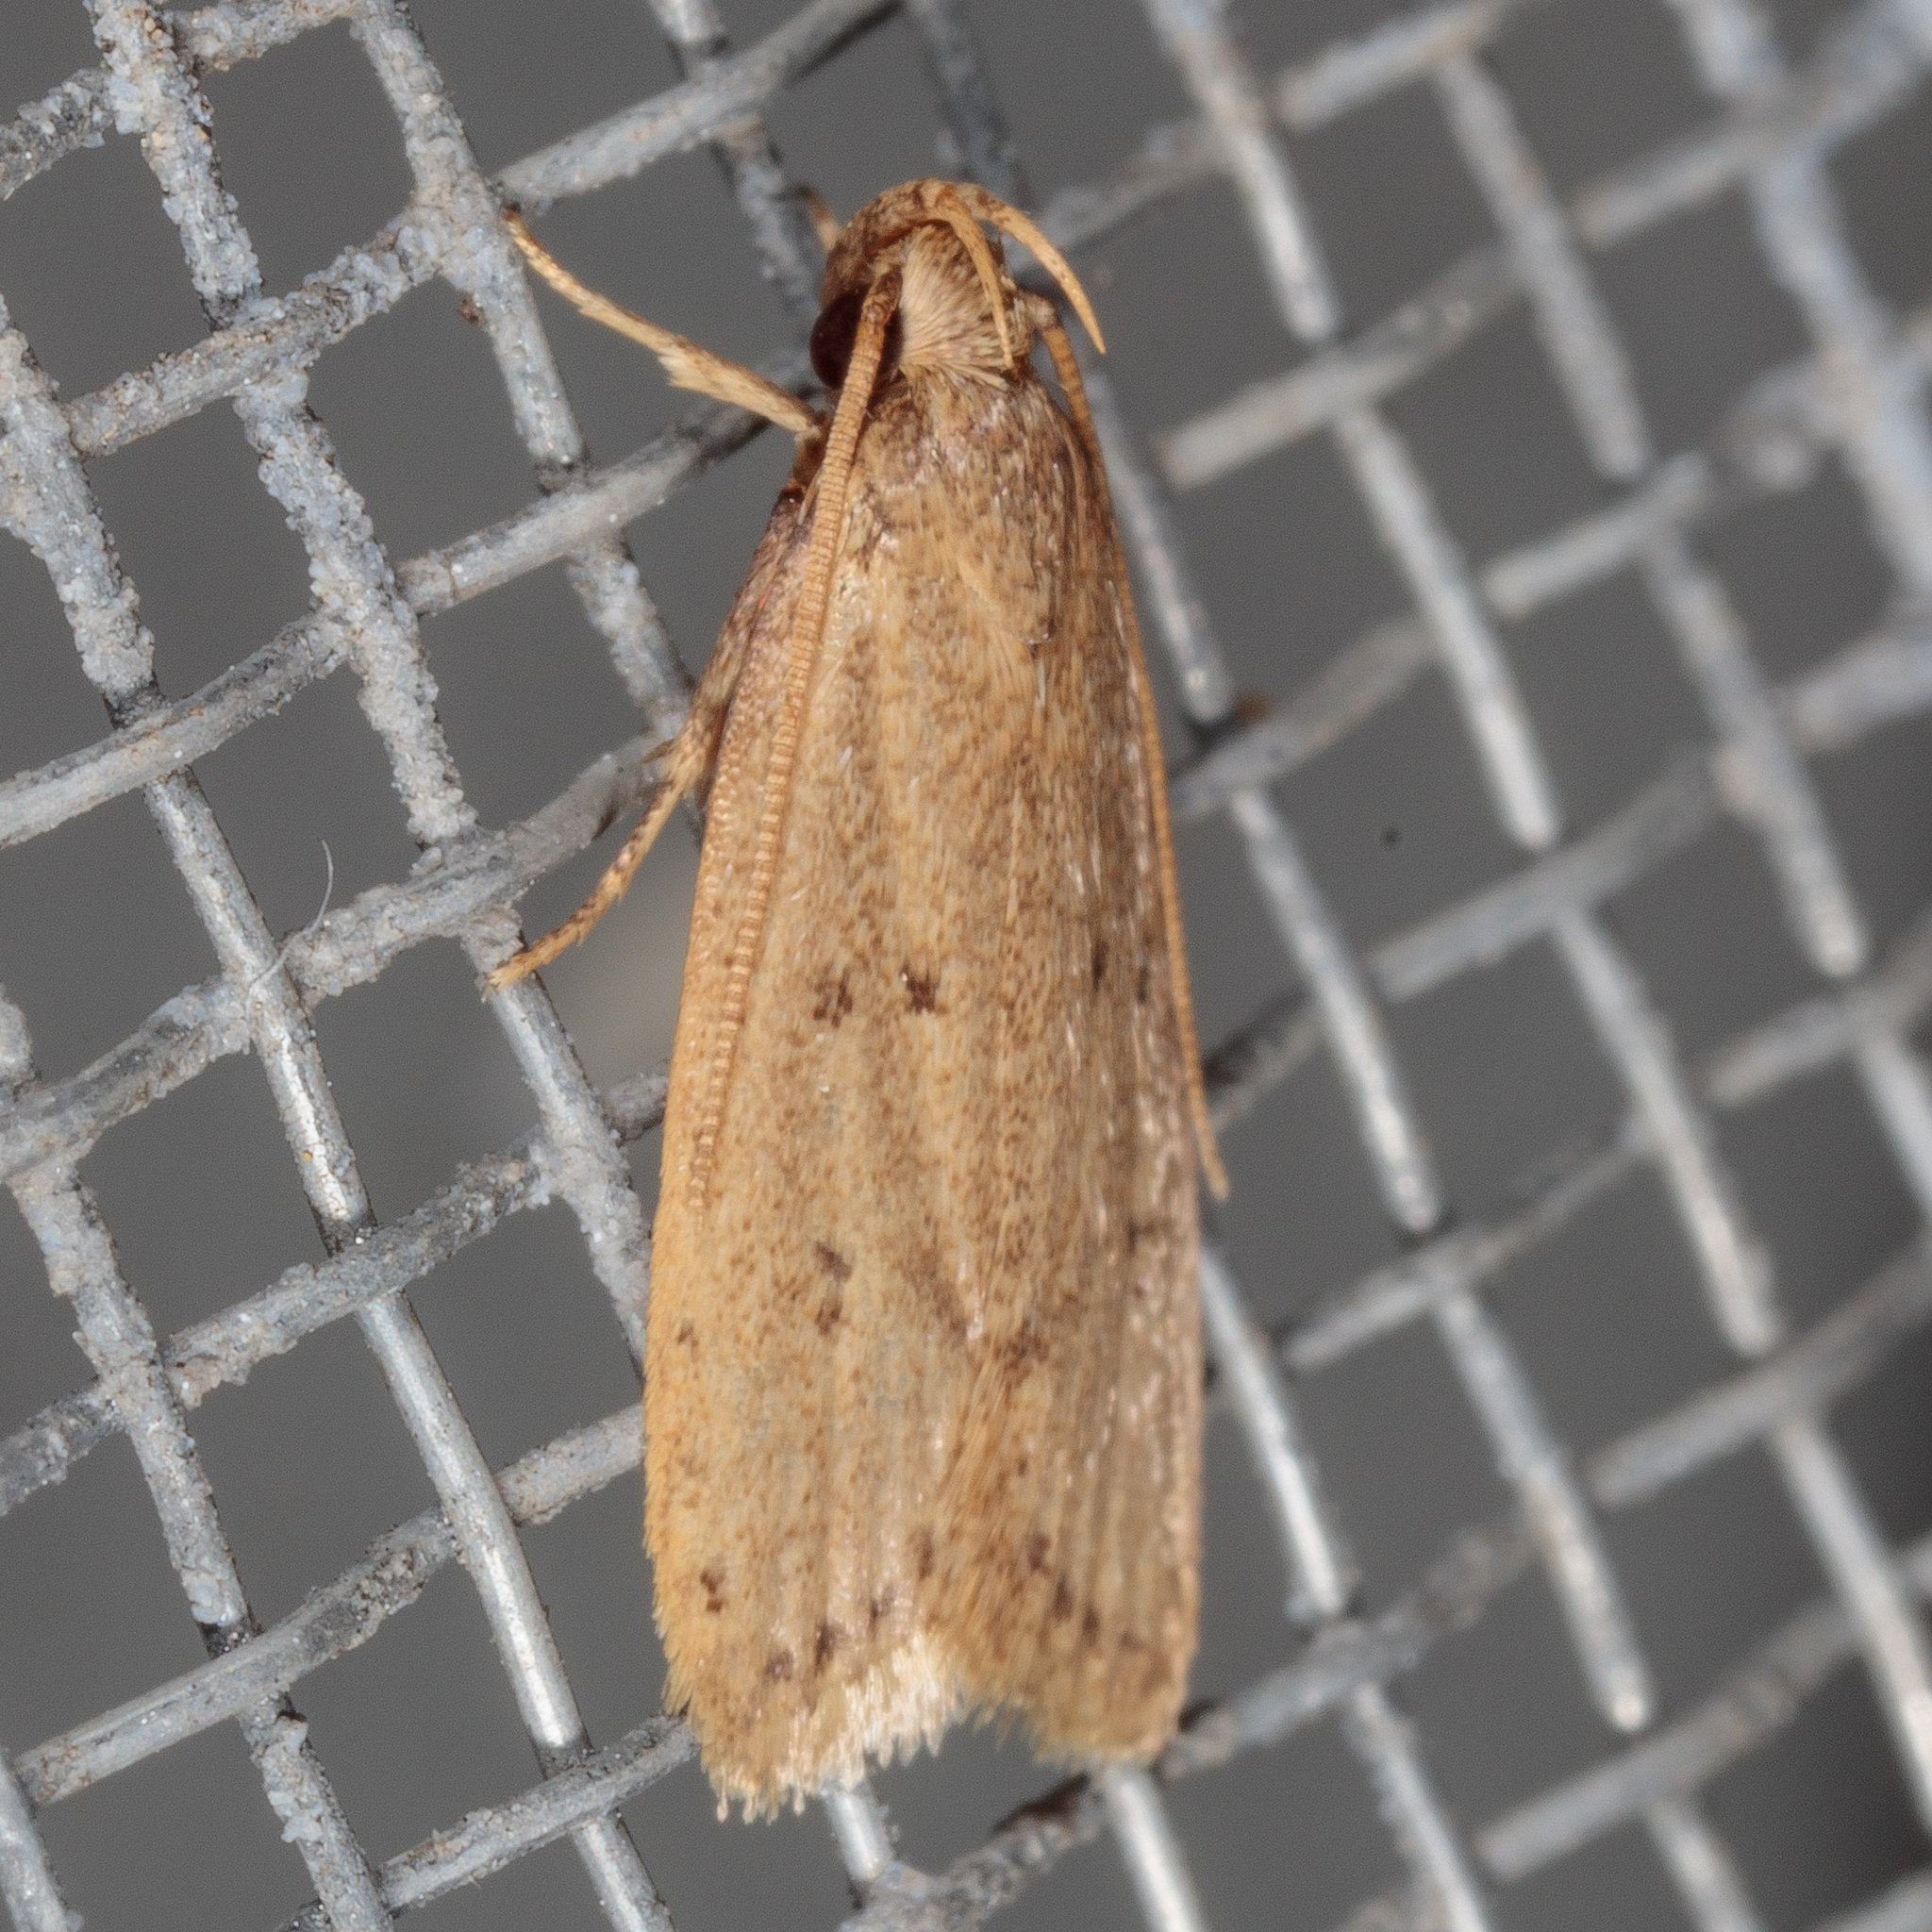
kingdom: Animalia
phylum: Arthropoda
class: Insecta
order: Lepidoptera
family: Autostichidae
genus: Autosticha
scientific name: Autosticha kyotensis
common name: Kyoto moth
